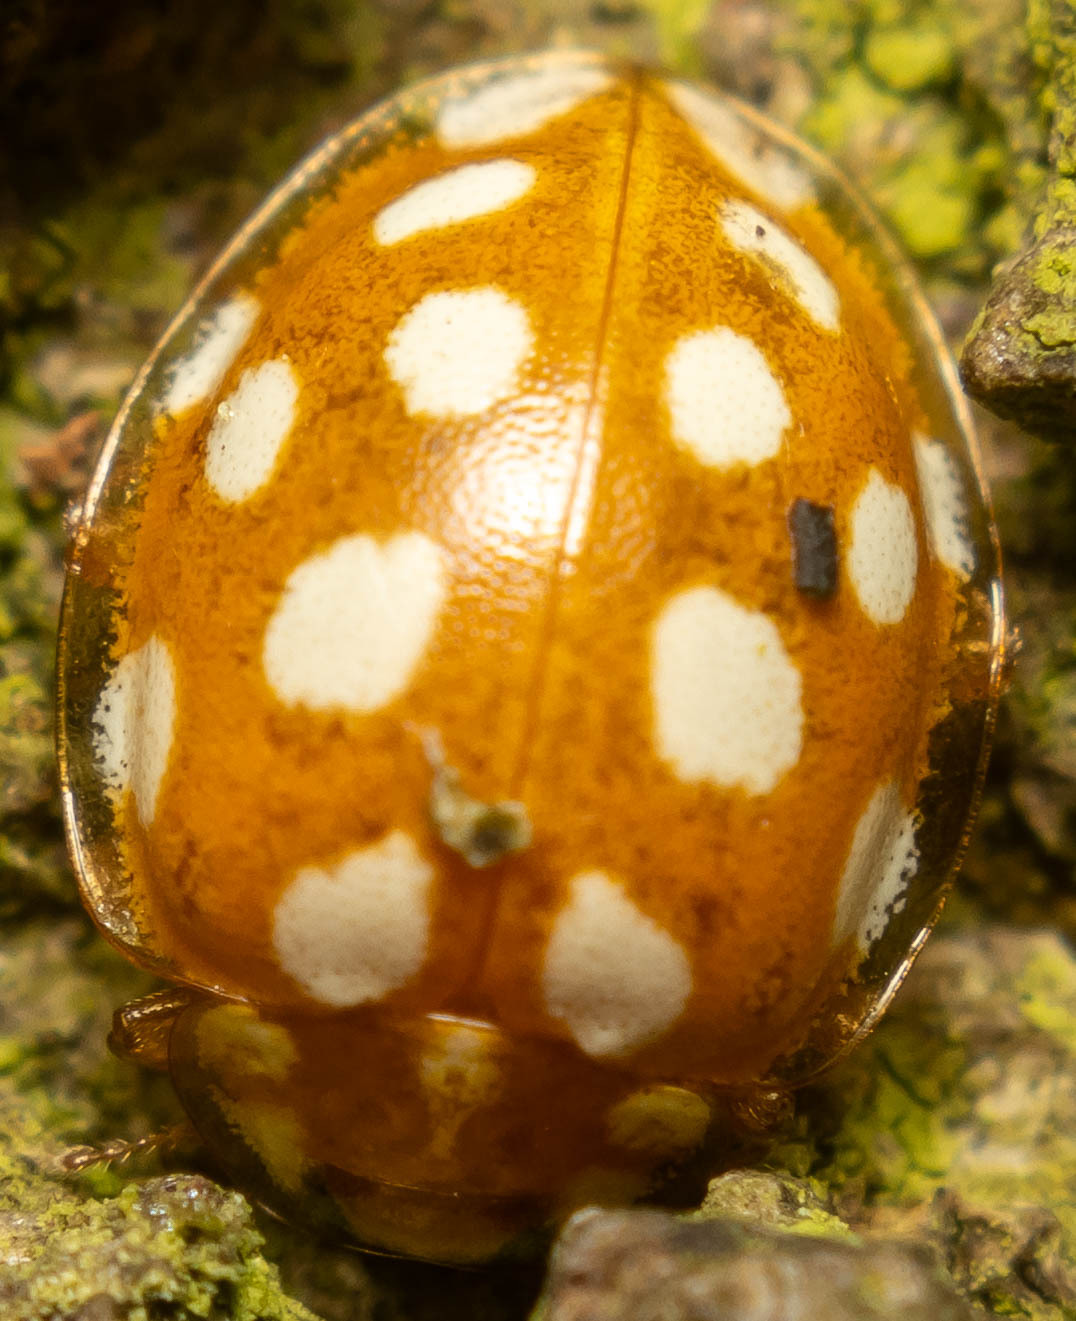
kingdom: Animalia
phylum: Arthropoda
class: Insecta
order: Coleoptera
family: Coccinellidae
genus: Halyzia
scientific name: Halyzia sedecimguttata
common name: Orange ladybird
